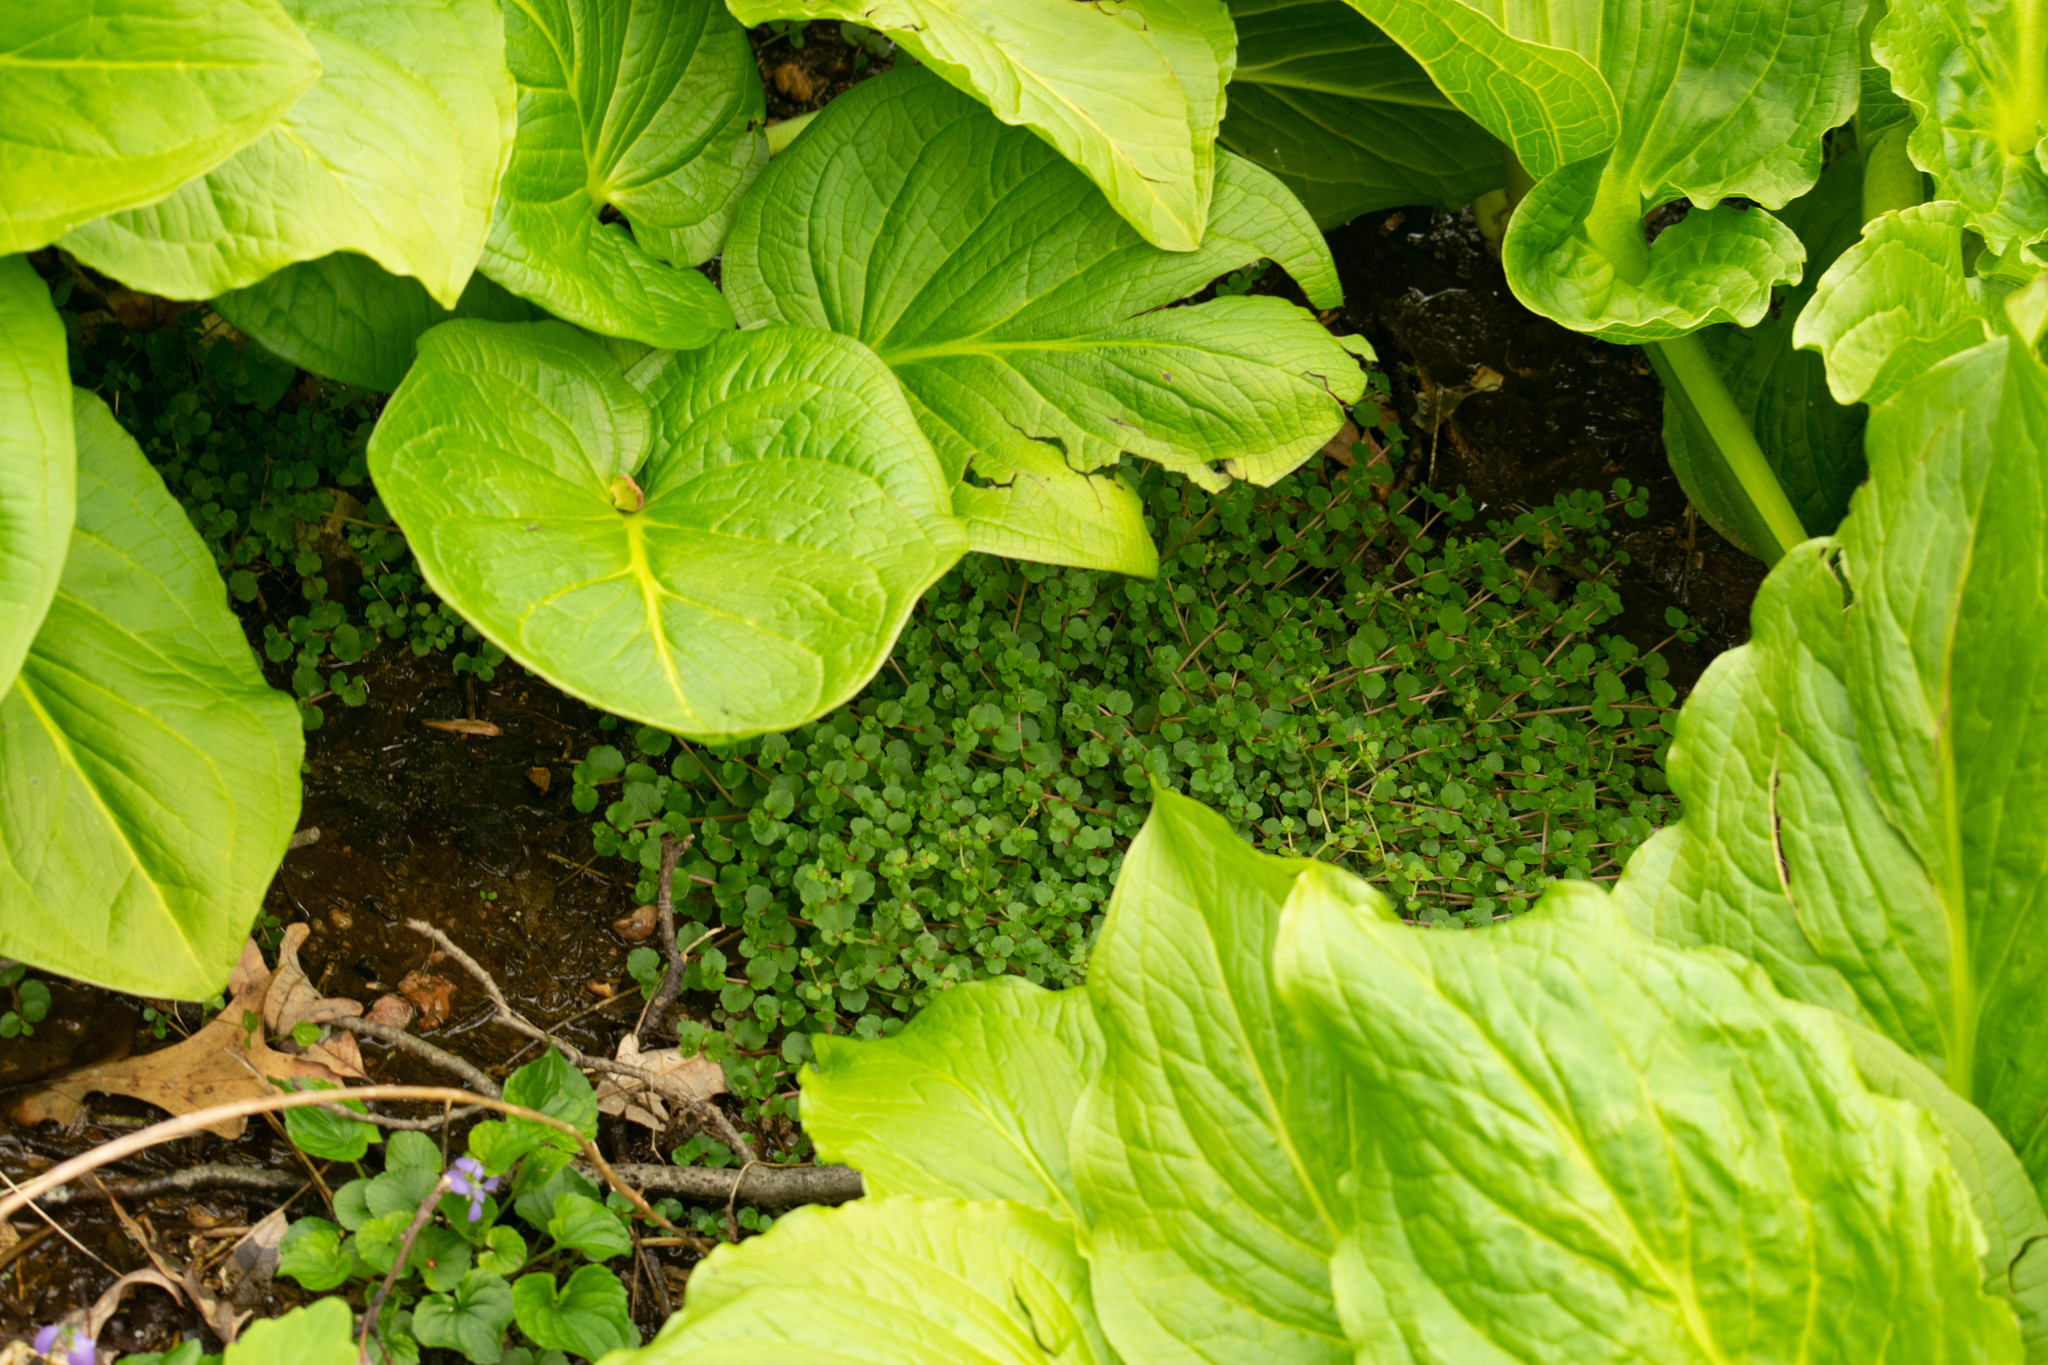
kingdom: Plantae
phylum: Tracheophyta
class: Magnoliopsida
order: Saxifragales
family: Saxifragaceae
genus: Chrysosplenium
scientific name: Chrysosplenium americanum
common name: American golden-saxifrage
